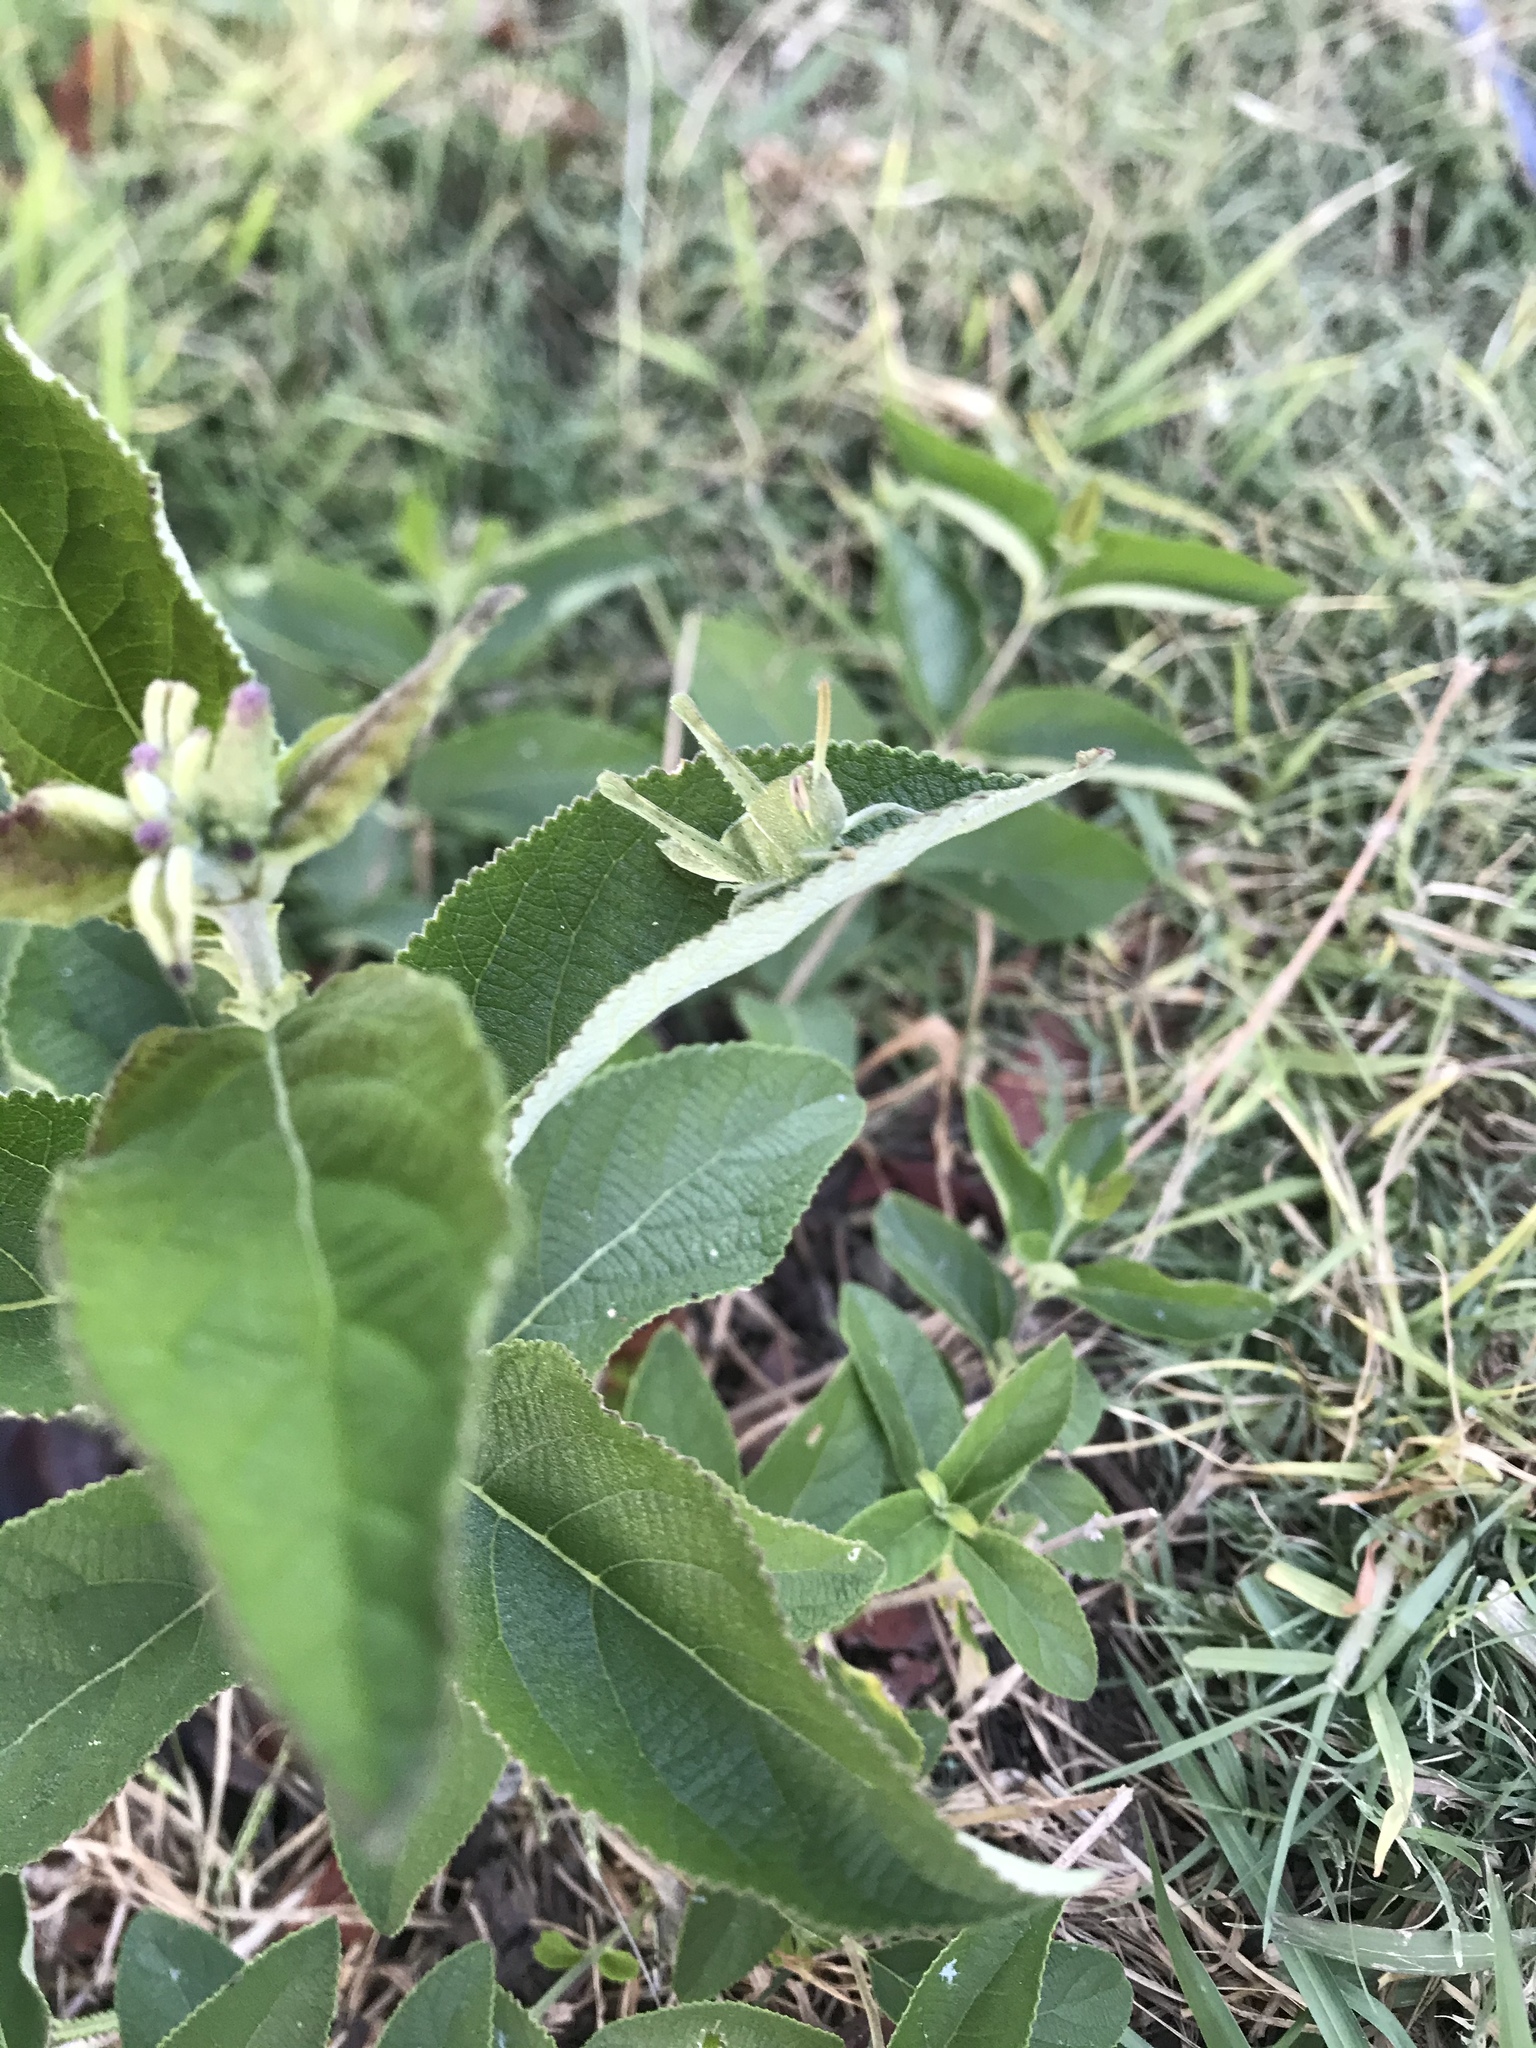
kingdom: Animalia
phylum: Arthropoda
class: Insecta
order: Orthoptera
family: Acrididae
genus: Schistocerca
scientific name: Schistocerca nitens
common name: Vagrant grasshopper
